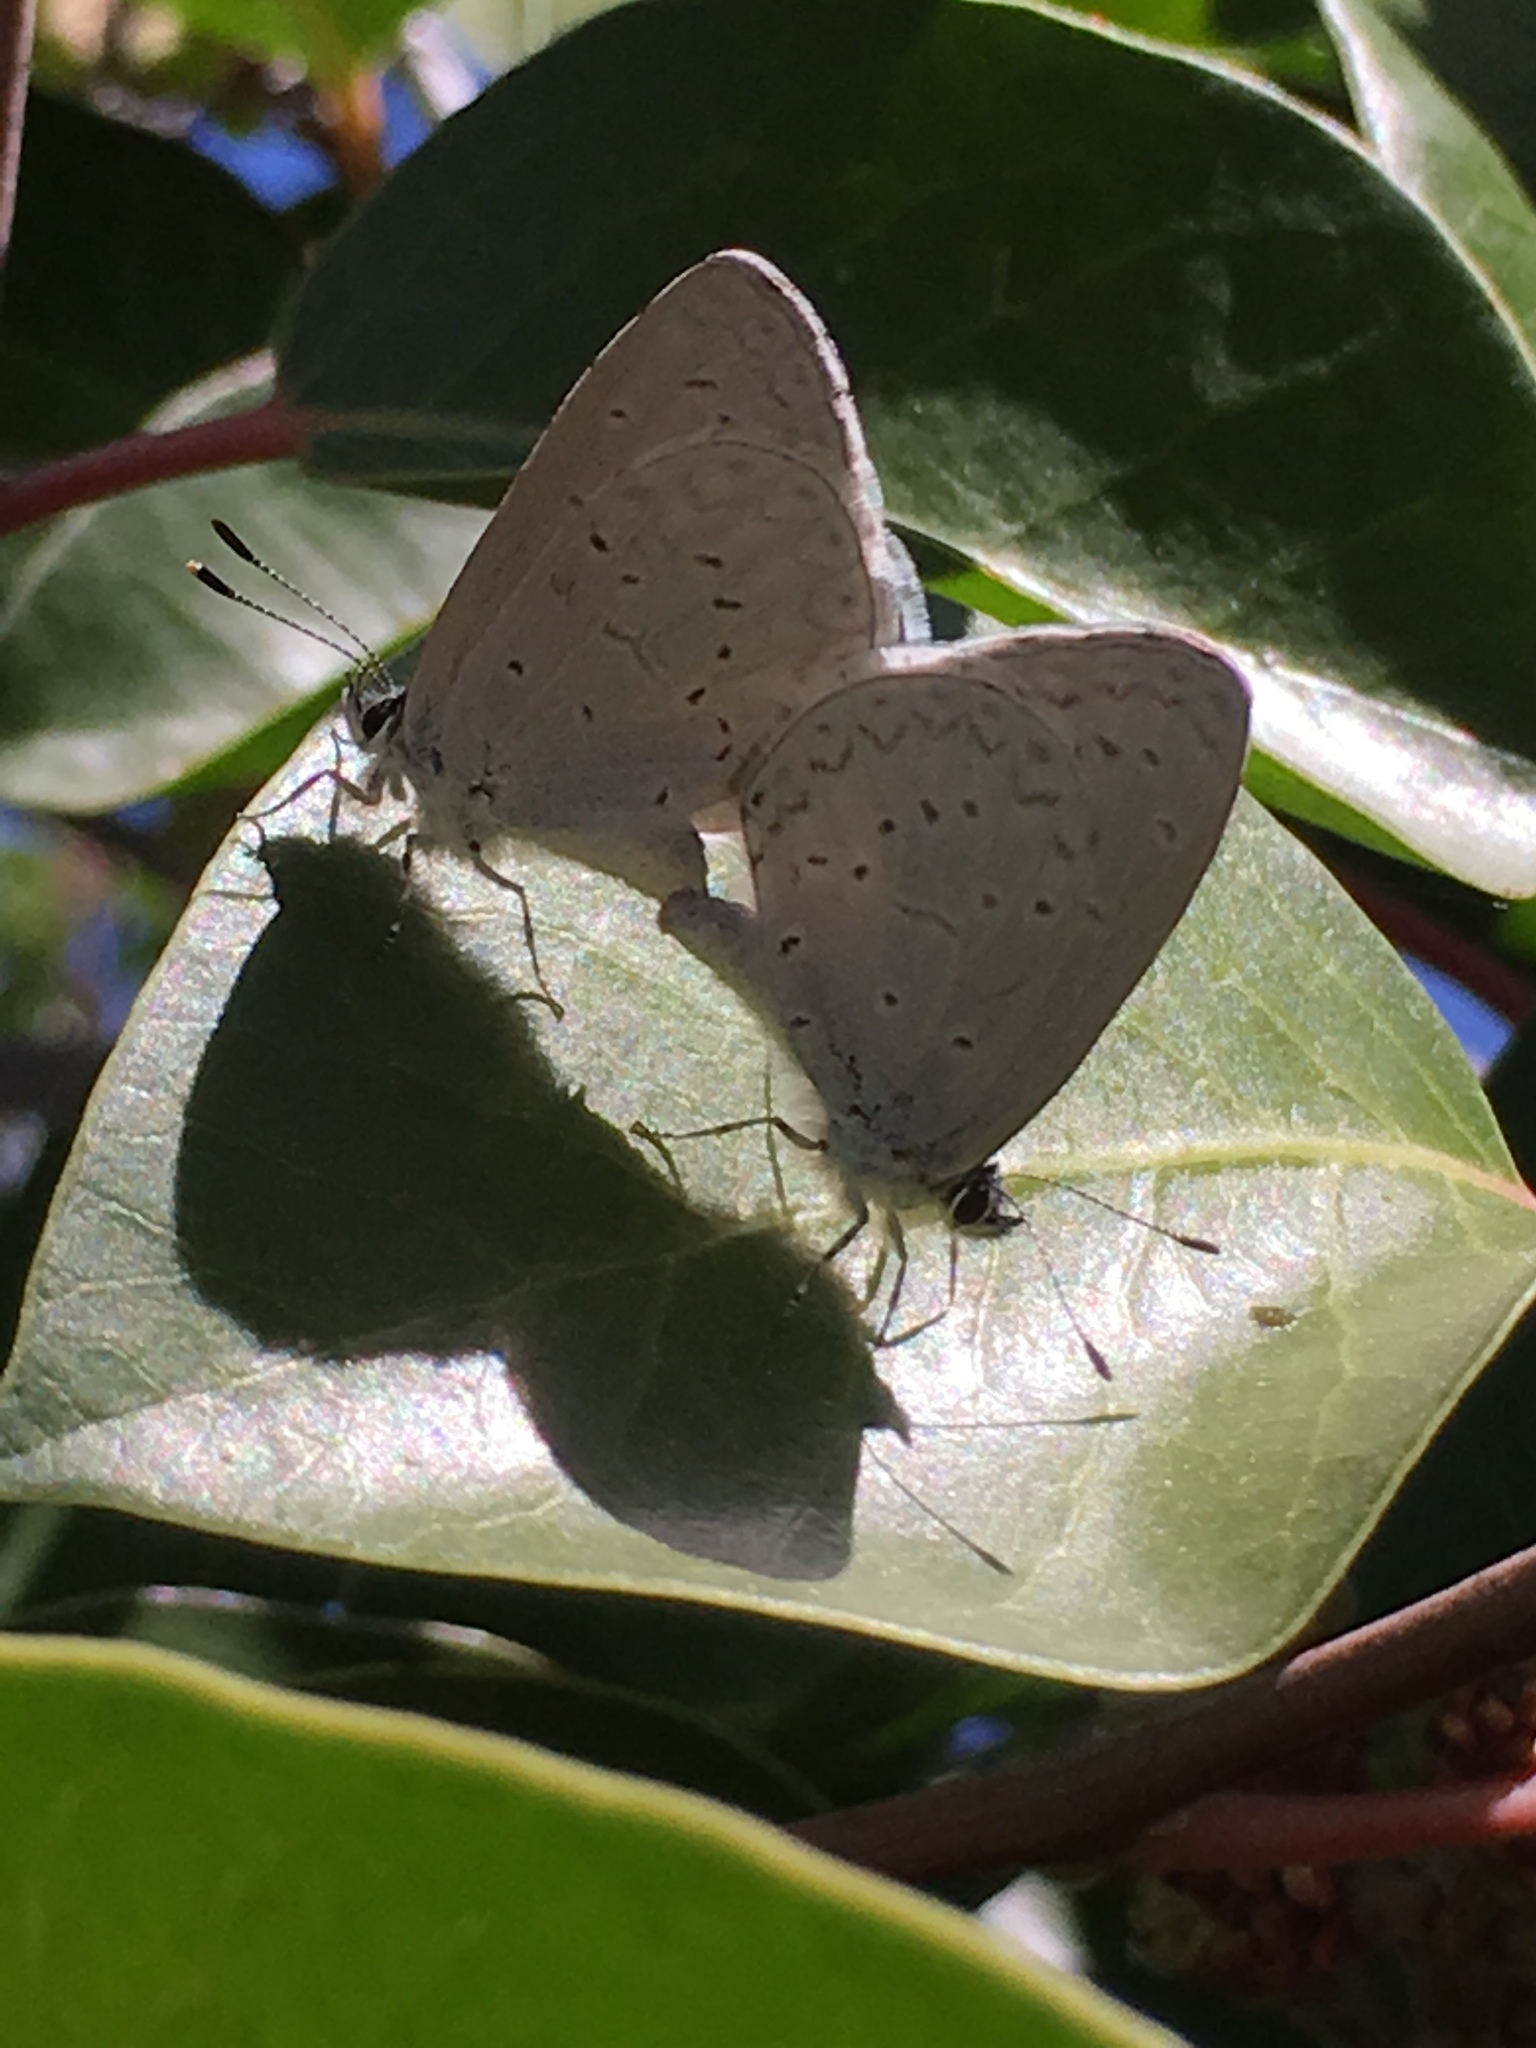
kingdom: Animalia
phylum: Arthropoda
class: Insecta
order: Lepidoptera
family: Lycaenidae
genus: Celastrina
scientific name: Celastrina ladon
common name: Spring azure
